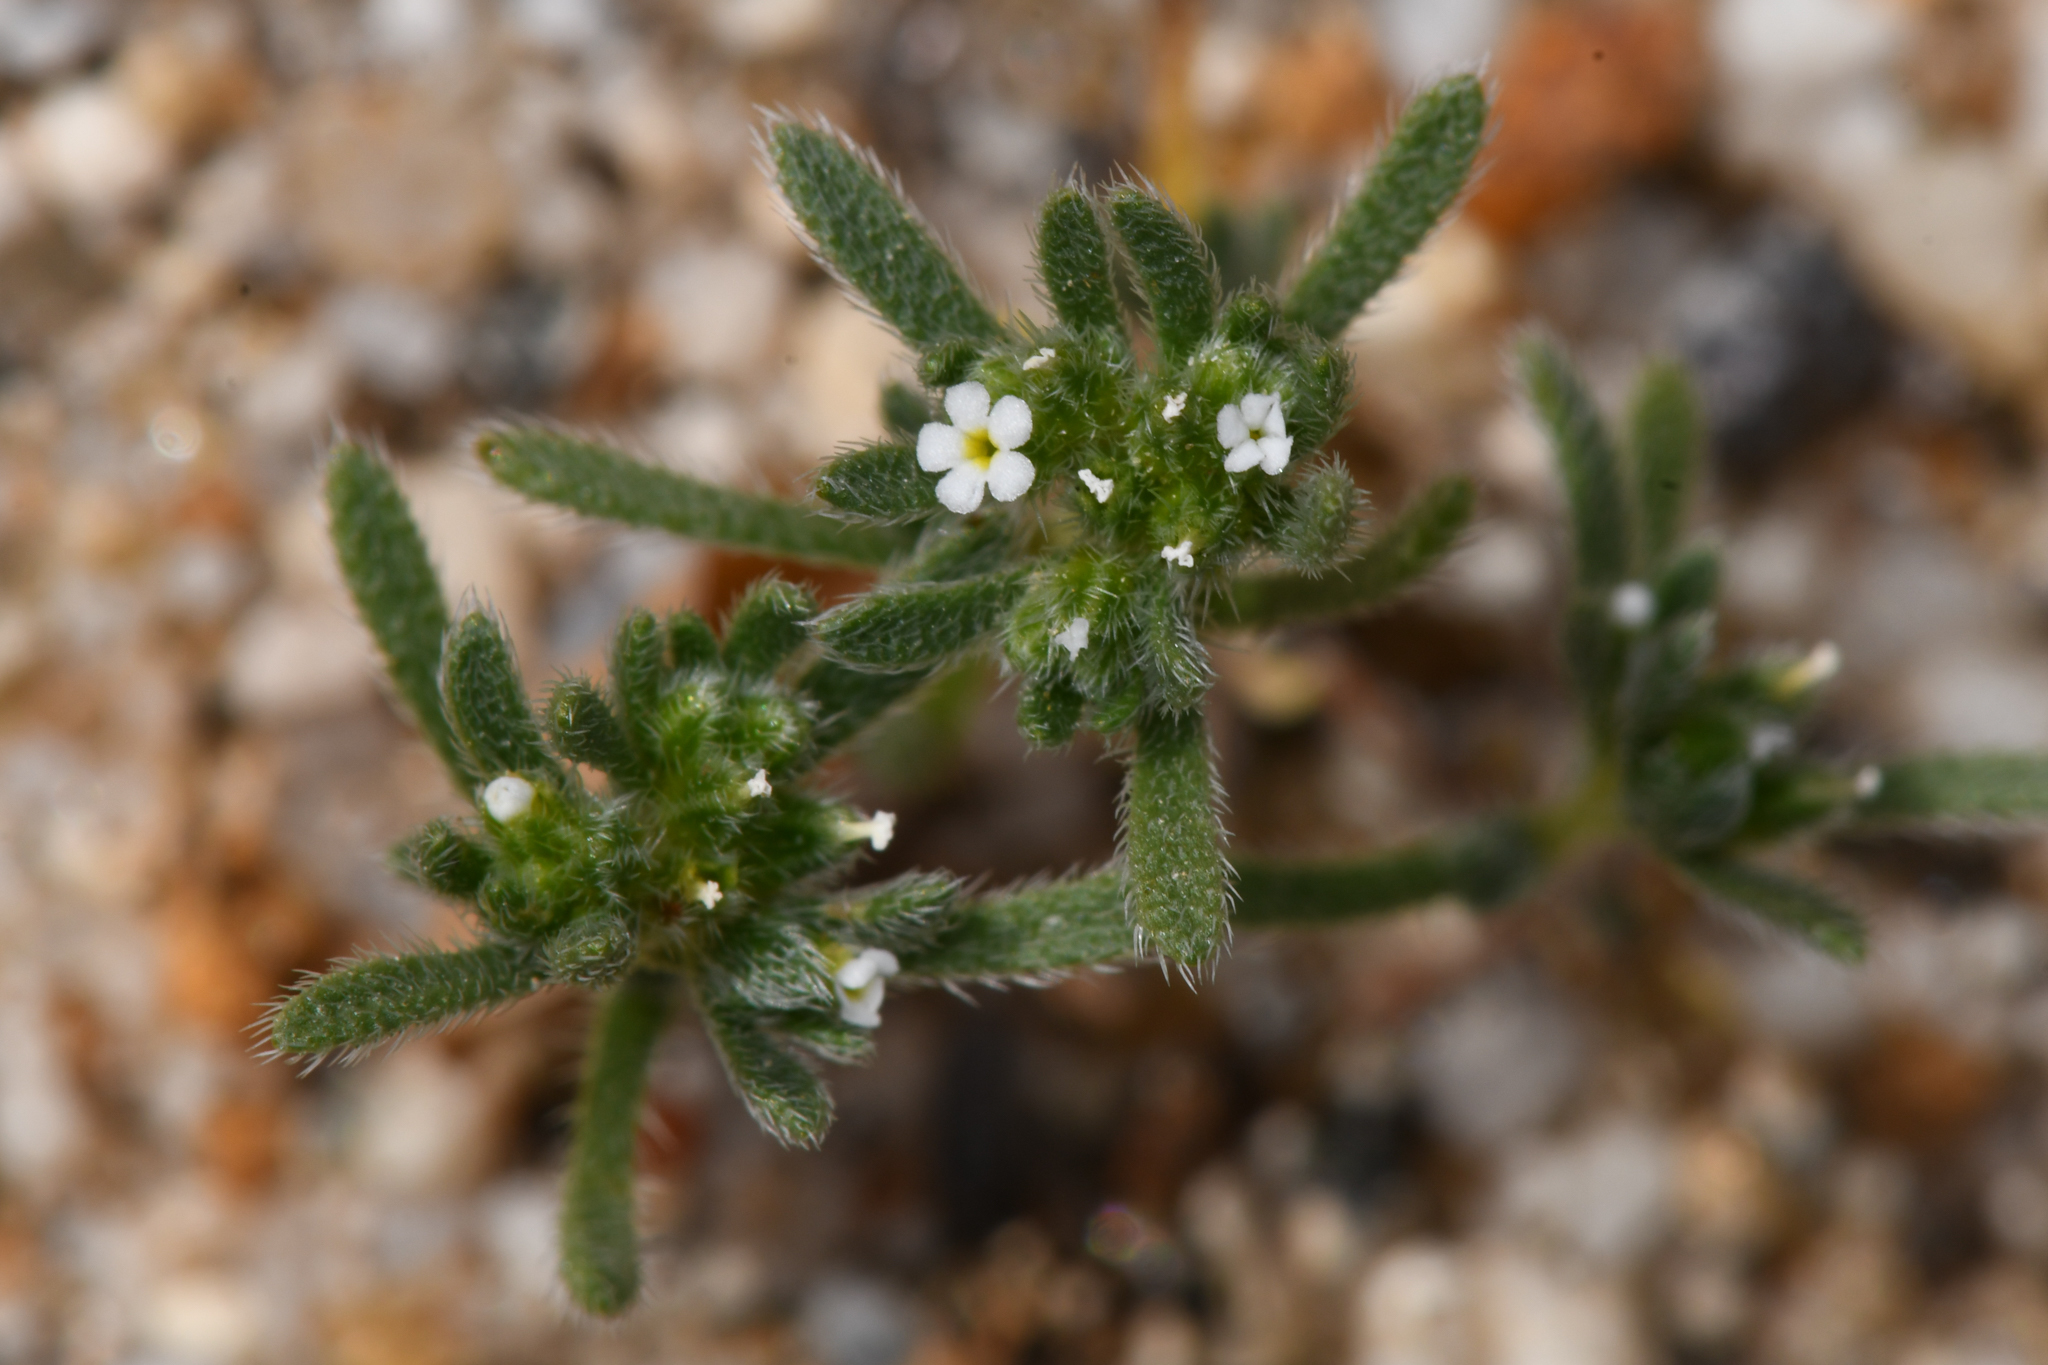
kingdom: Plantae
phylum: Tracheophyta
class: Magnoliopsida
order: Boraginales
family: Boraginaceae
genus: Eremocarya
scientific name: Eremocarya micrantha
